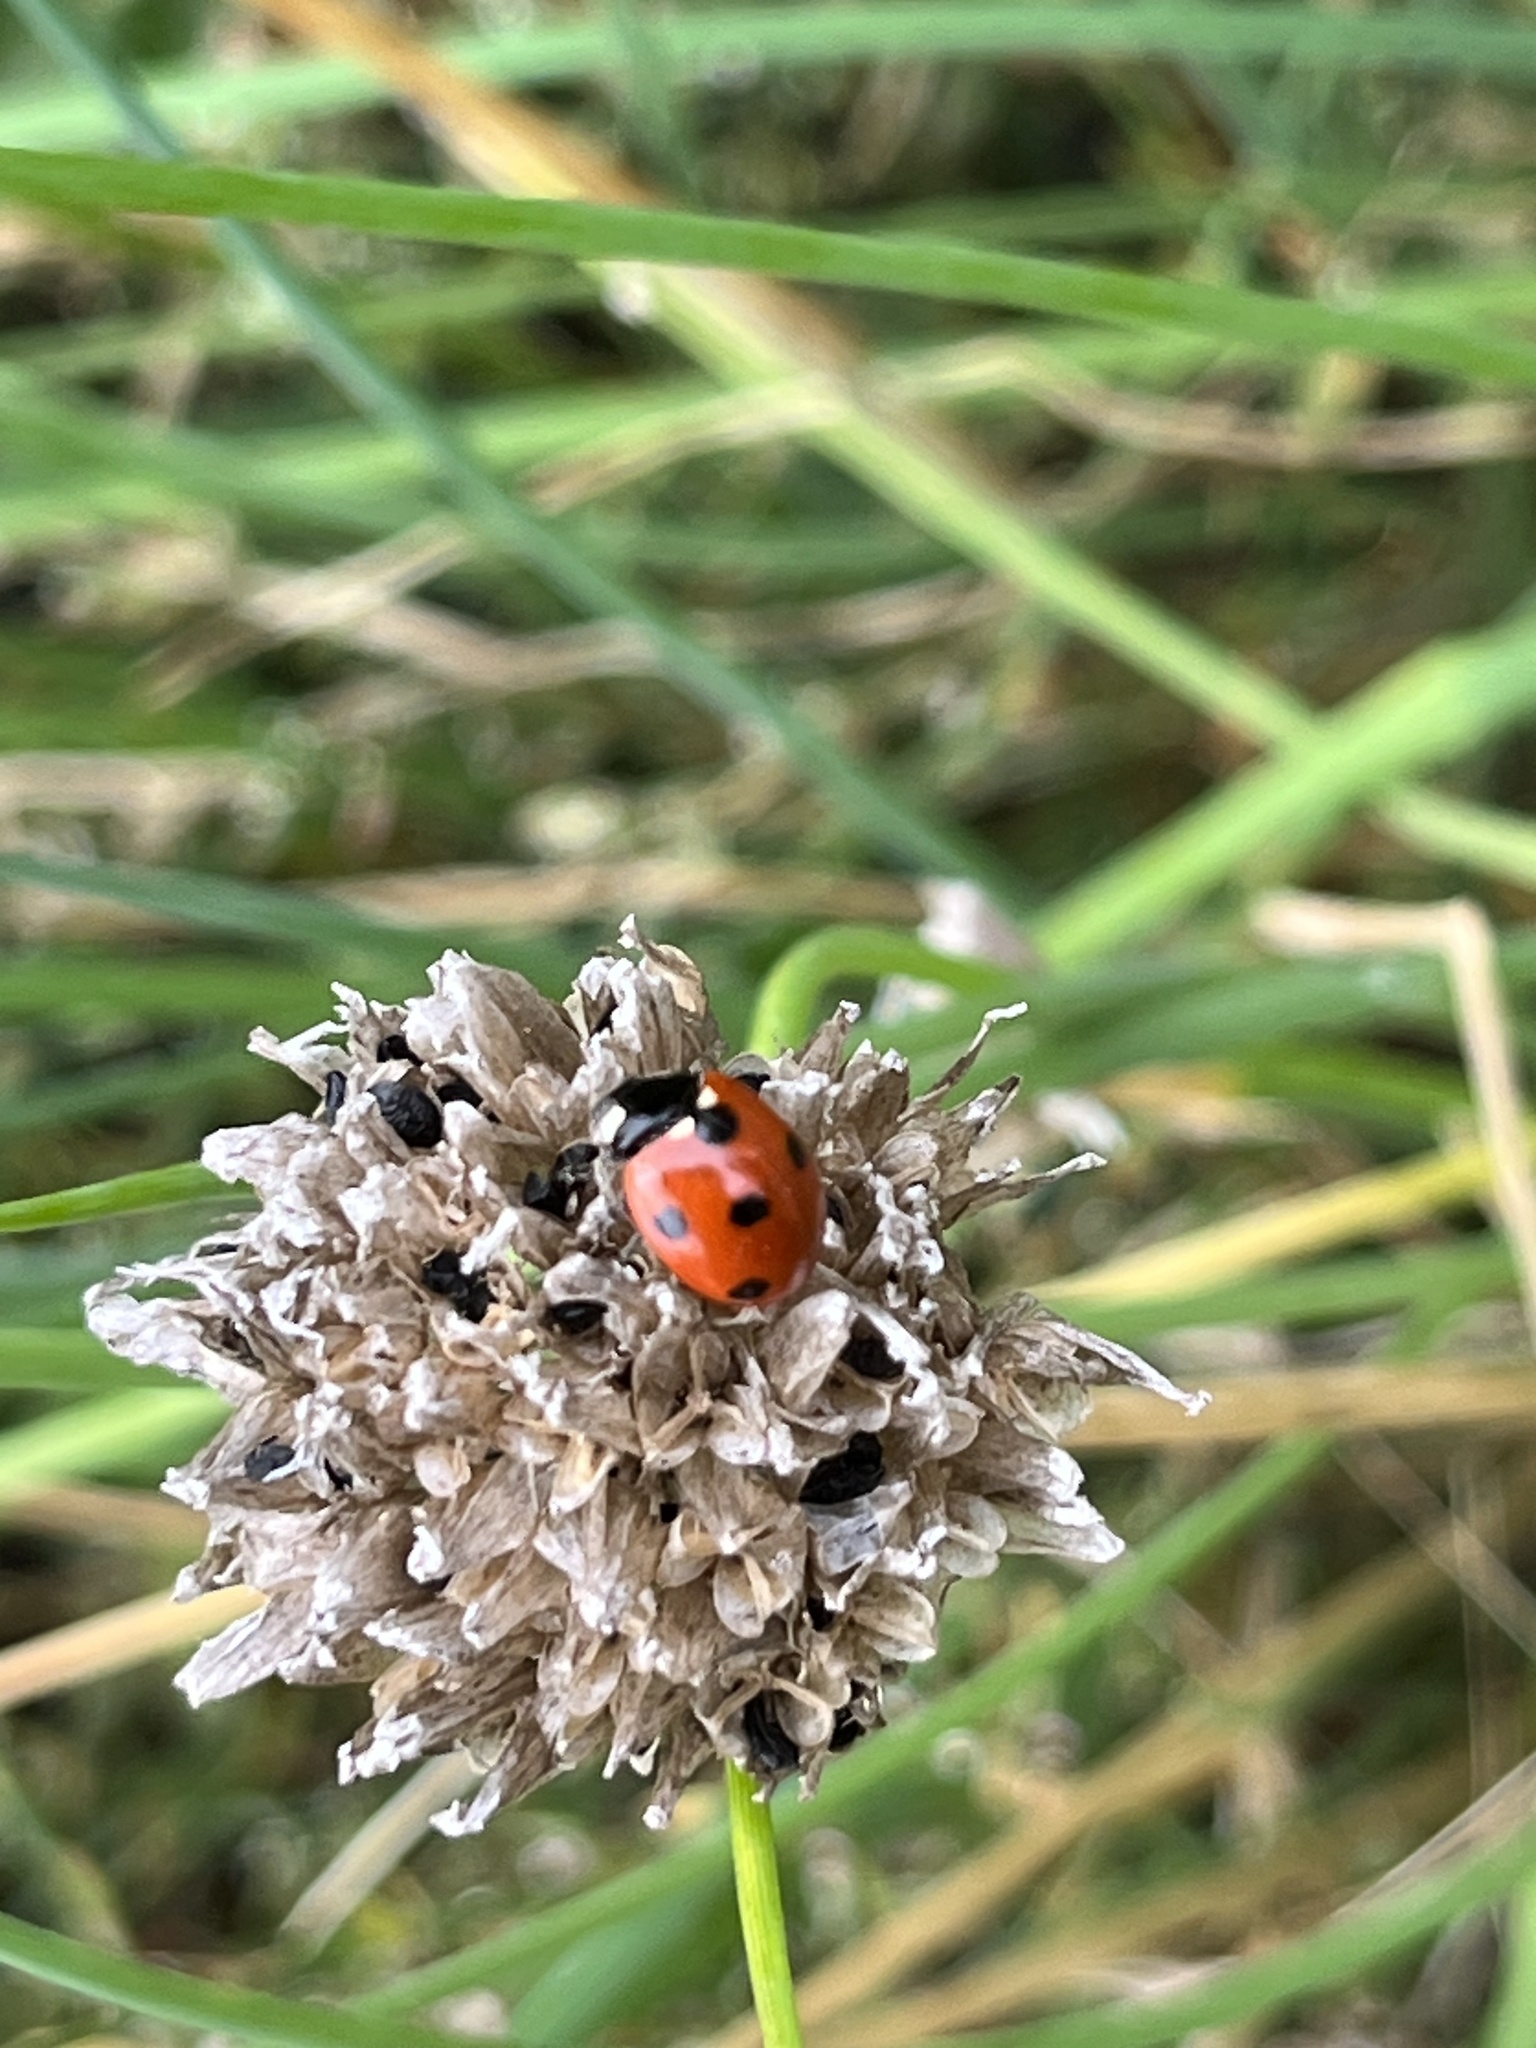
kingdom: Animalia
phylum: Arthropoda
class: Insecta
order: Coleoptera
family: Coccinellidae
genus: Coccinella
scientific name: Coccinella septempunctata
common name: Sevenspotted lady beetle
